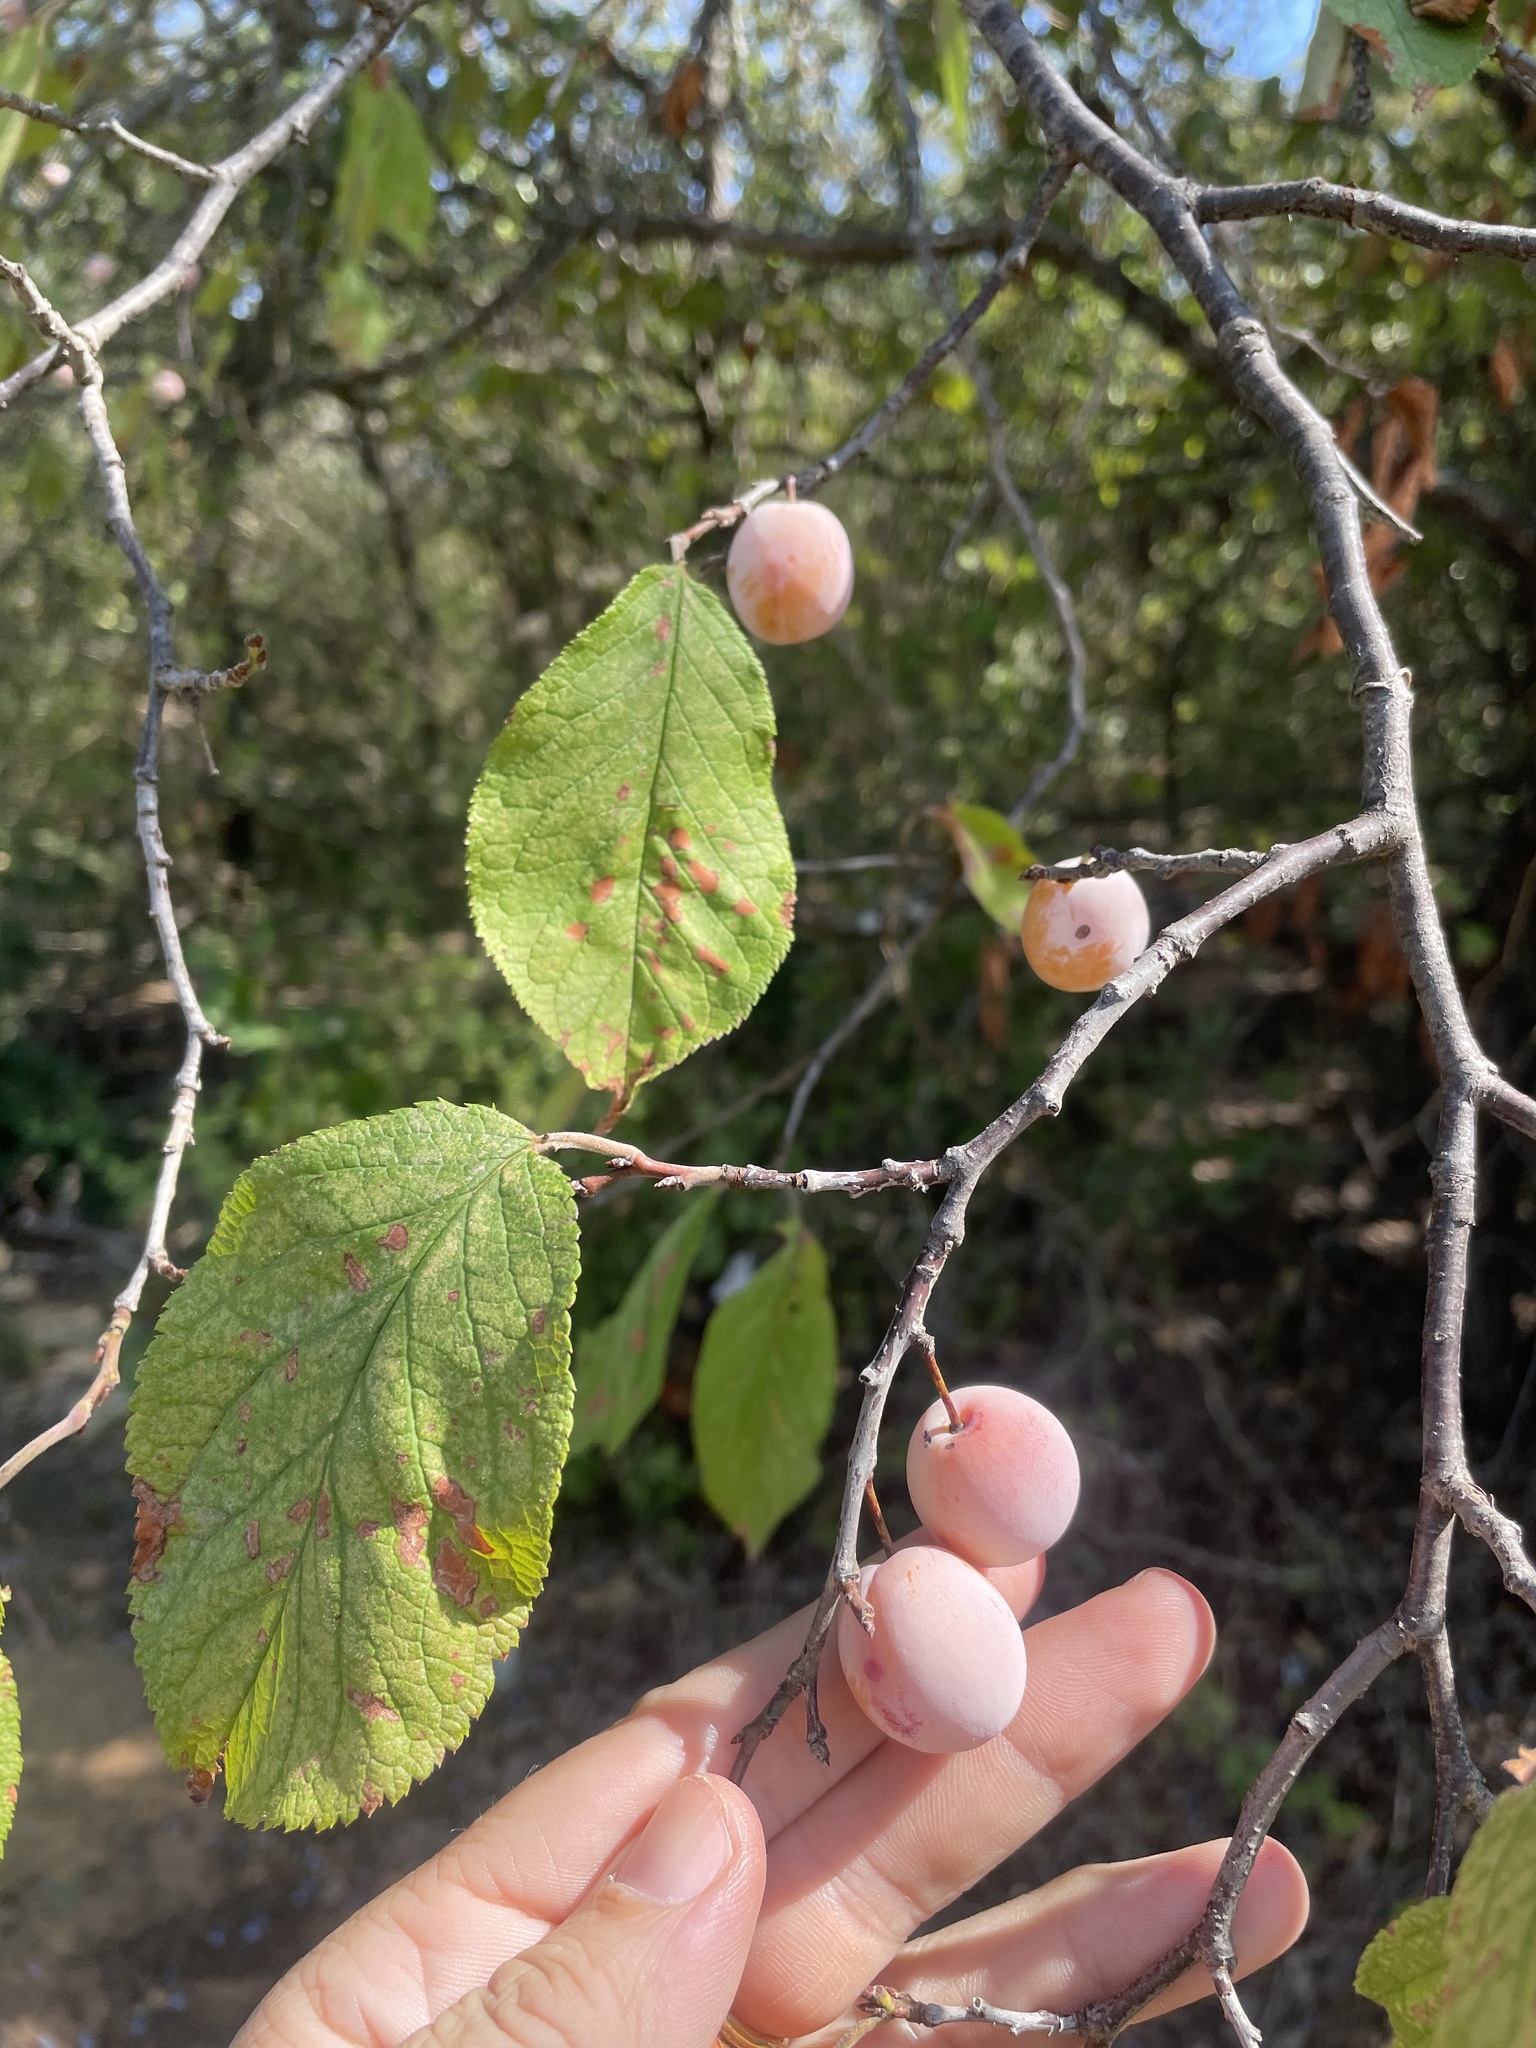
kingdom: Plantae
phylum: Tracheophyta
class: Magnoliopsida
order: Rosales
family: Rosaceae
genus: Prunus
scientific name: Prunus mexicana
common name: Mexican plum
